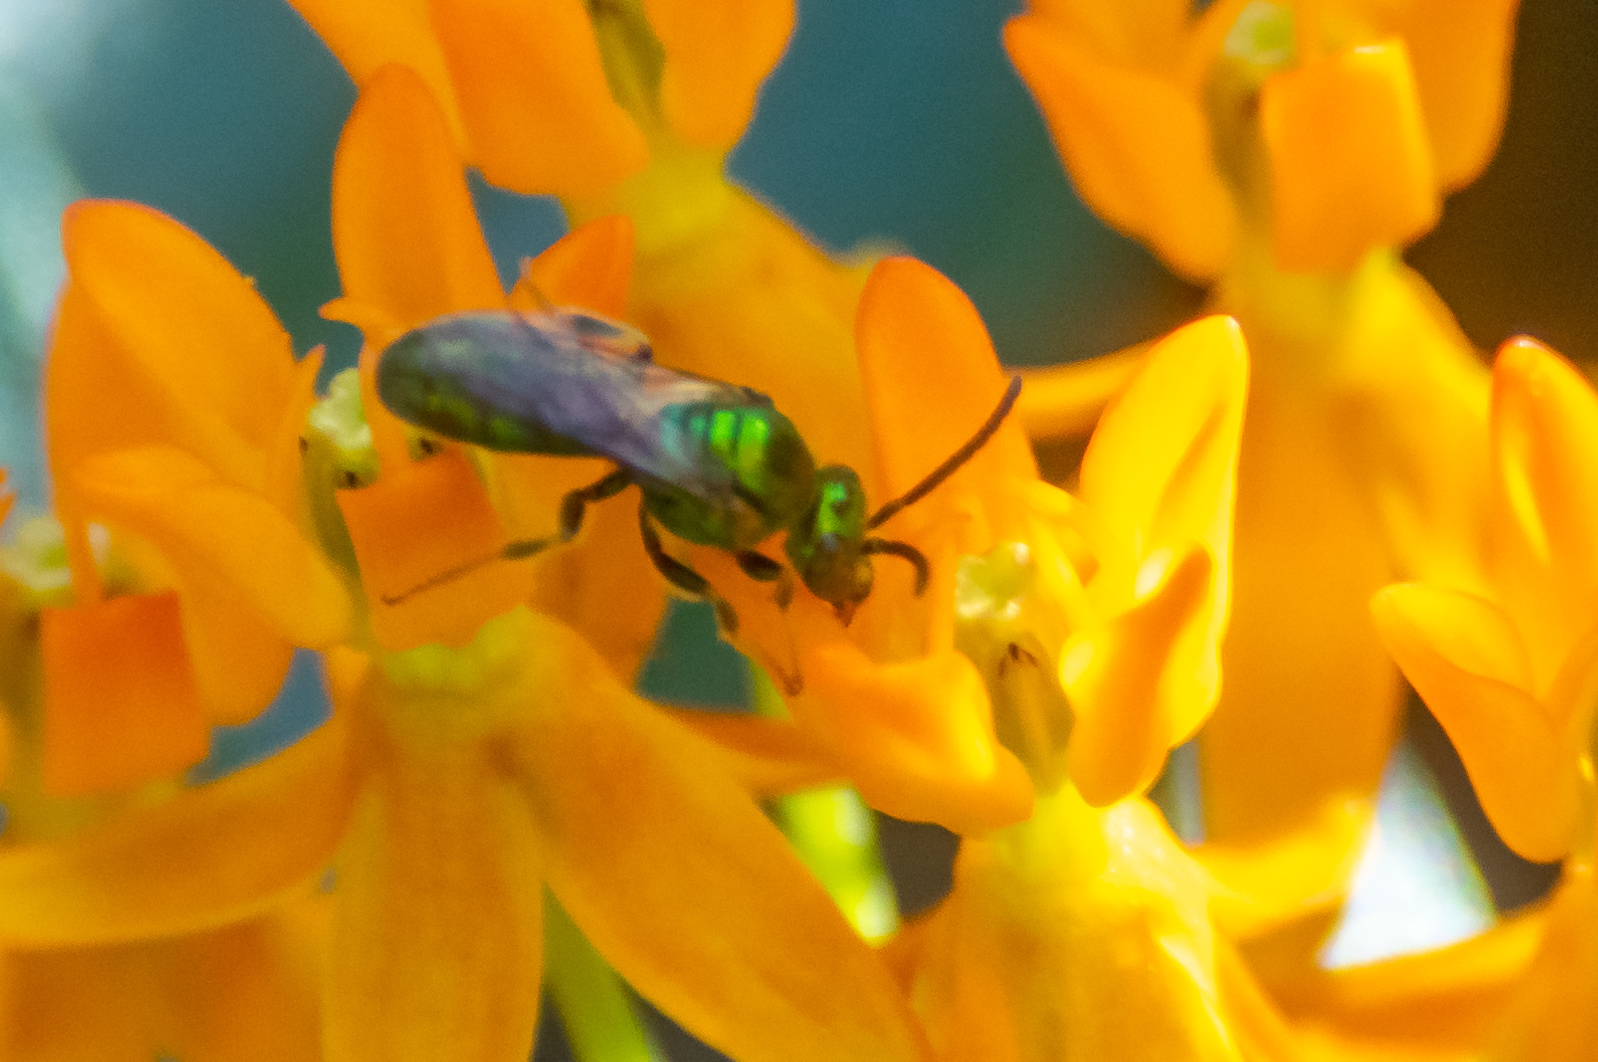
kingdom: Animalia
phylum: Arthropoda
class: Insecta
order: Hymenoptera
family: Halictidae
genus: Augochlora
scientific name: Augochlora pura
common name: Pure green sweat bee
